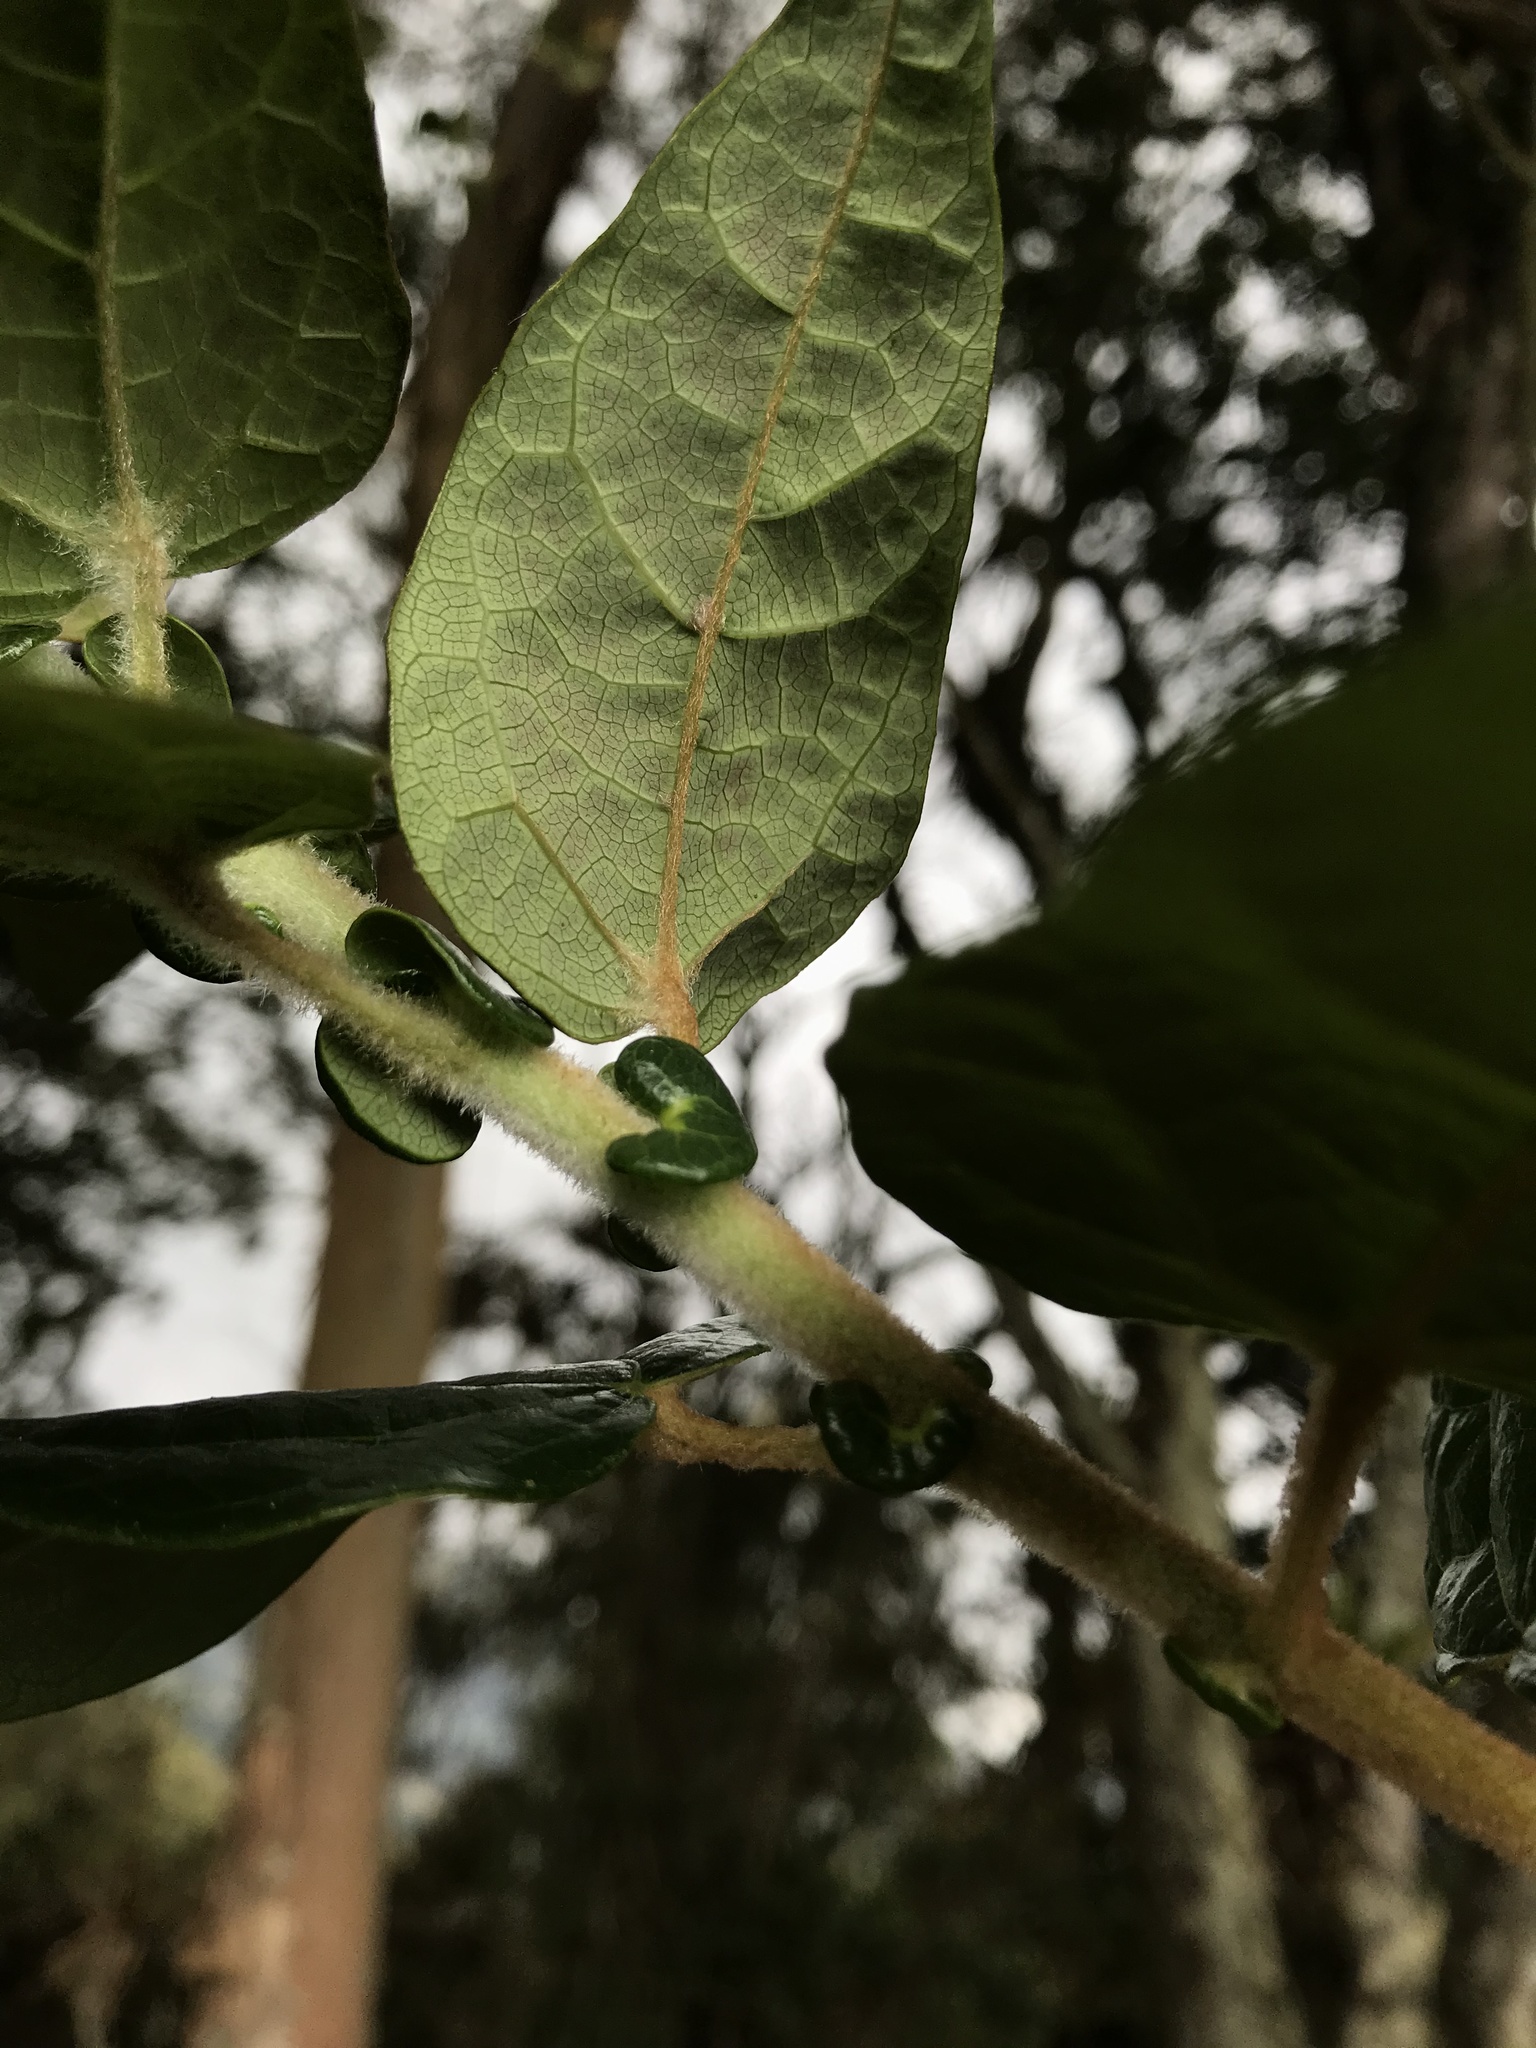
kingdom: Plantae
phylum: Tracheophyta
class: Magnoliopsida
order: Oxalidales
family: Elaeocarpaceae
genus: Vallea
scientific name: Vallea stipularis
